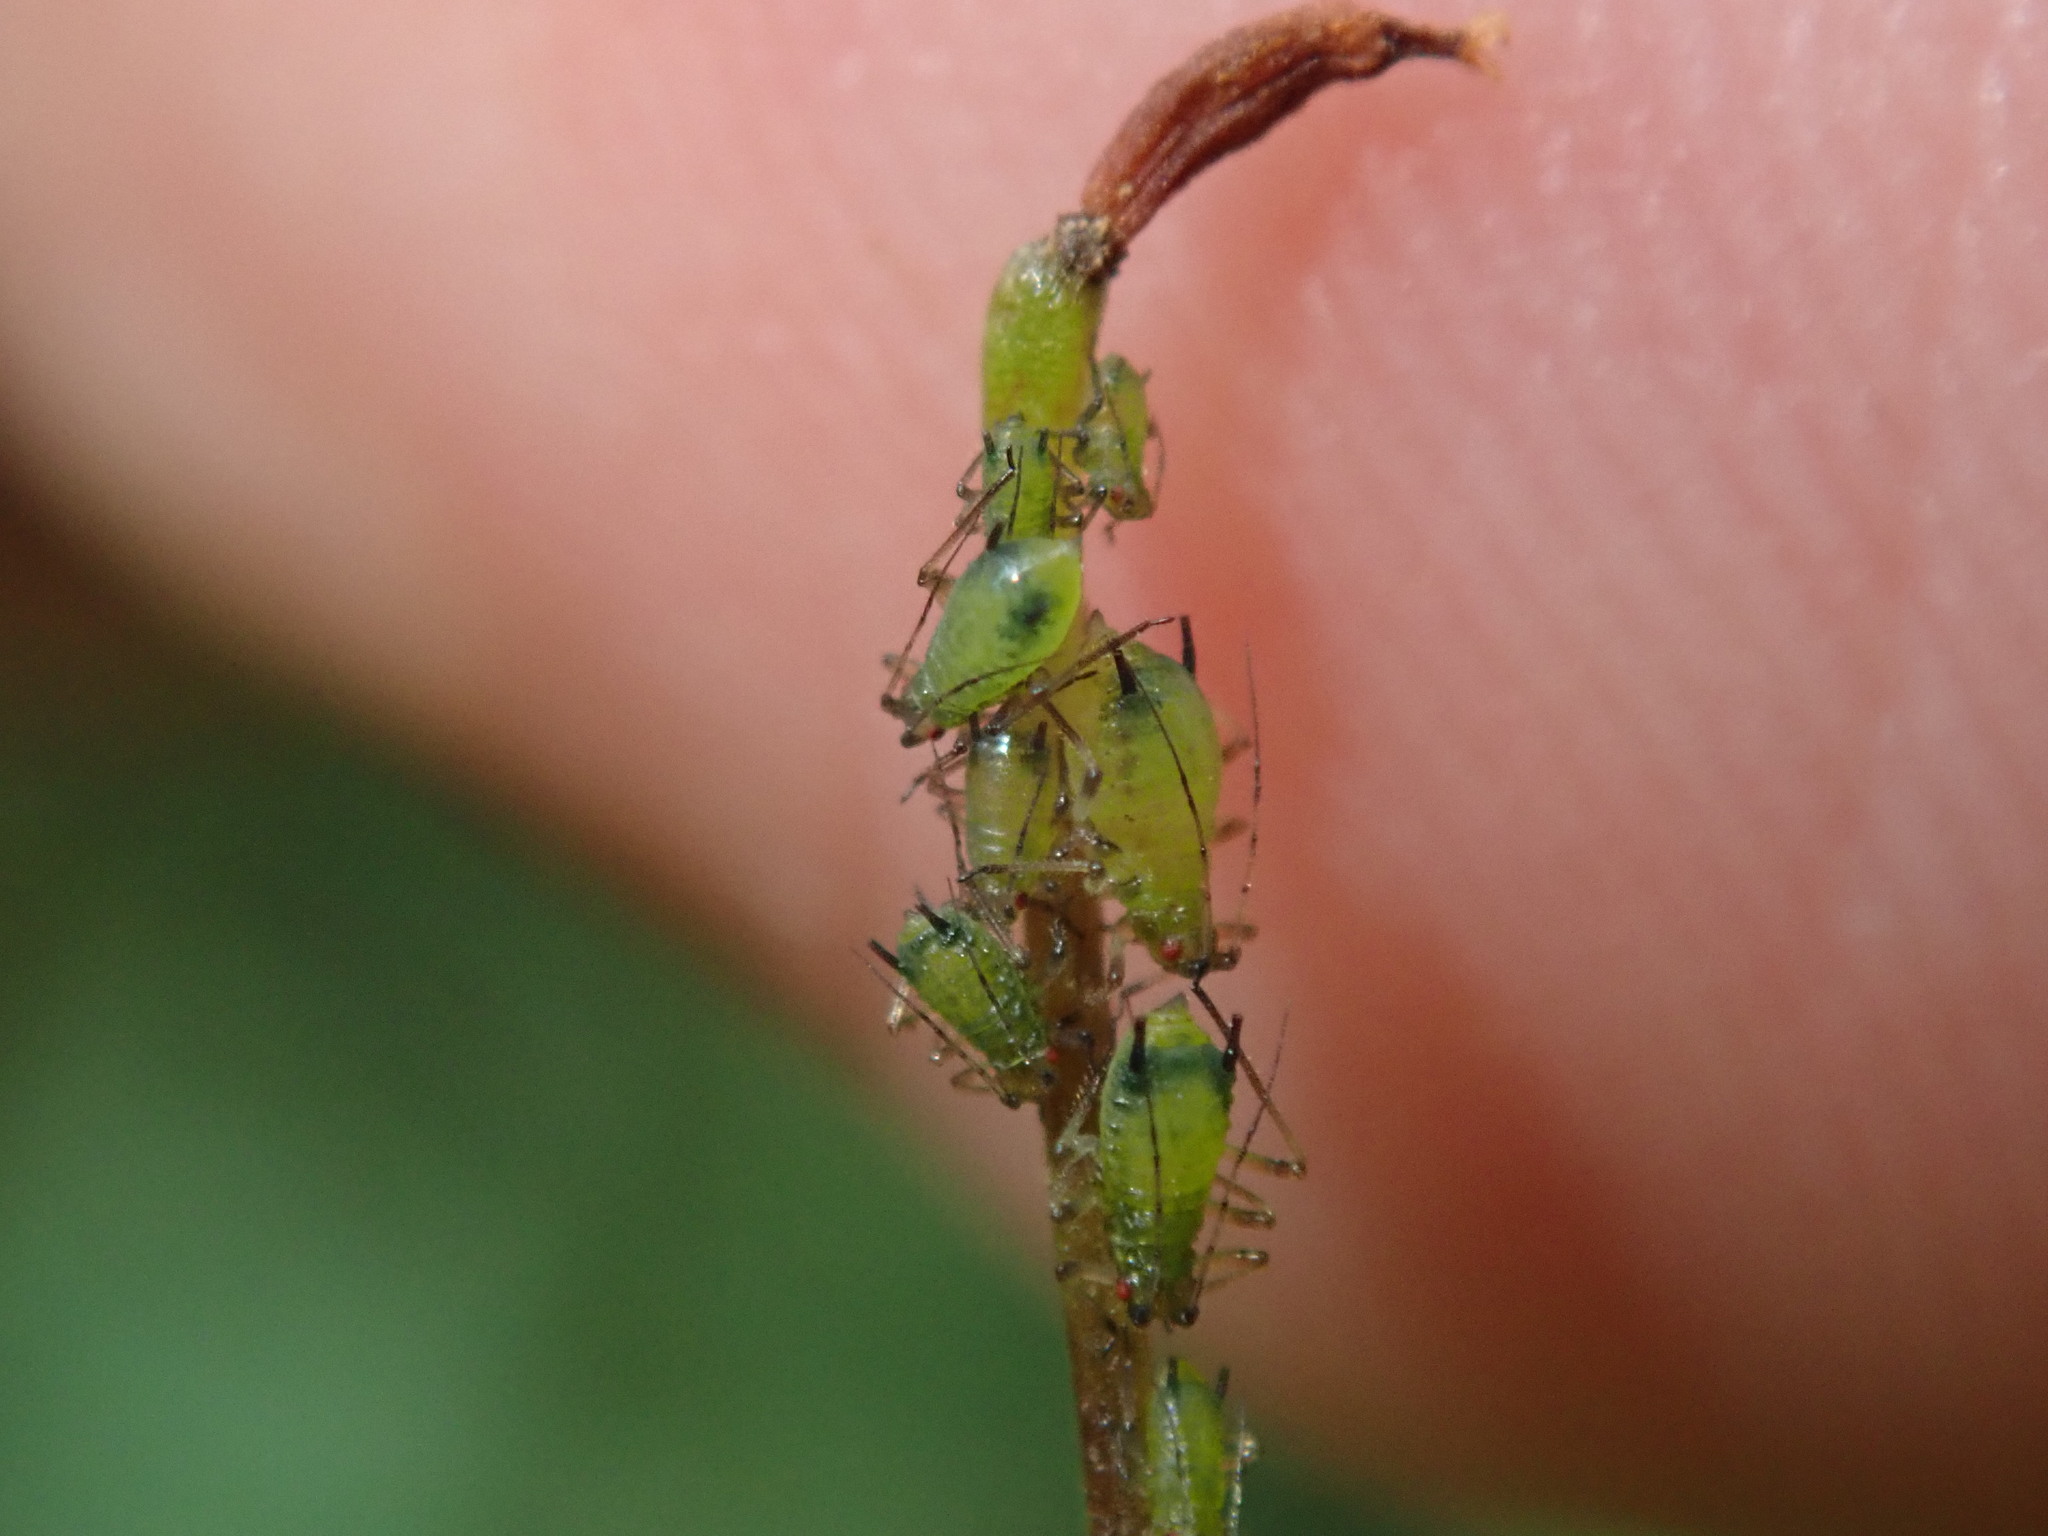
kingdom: Animalia
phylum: Arthropoda
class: Insecta
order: Hemiptera
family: Aphididae
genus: Impatientinum
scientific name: Impatientinum asiaticum
